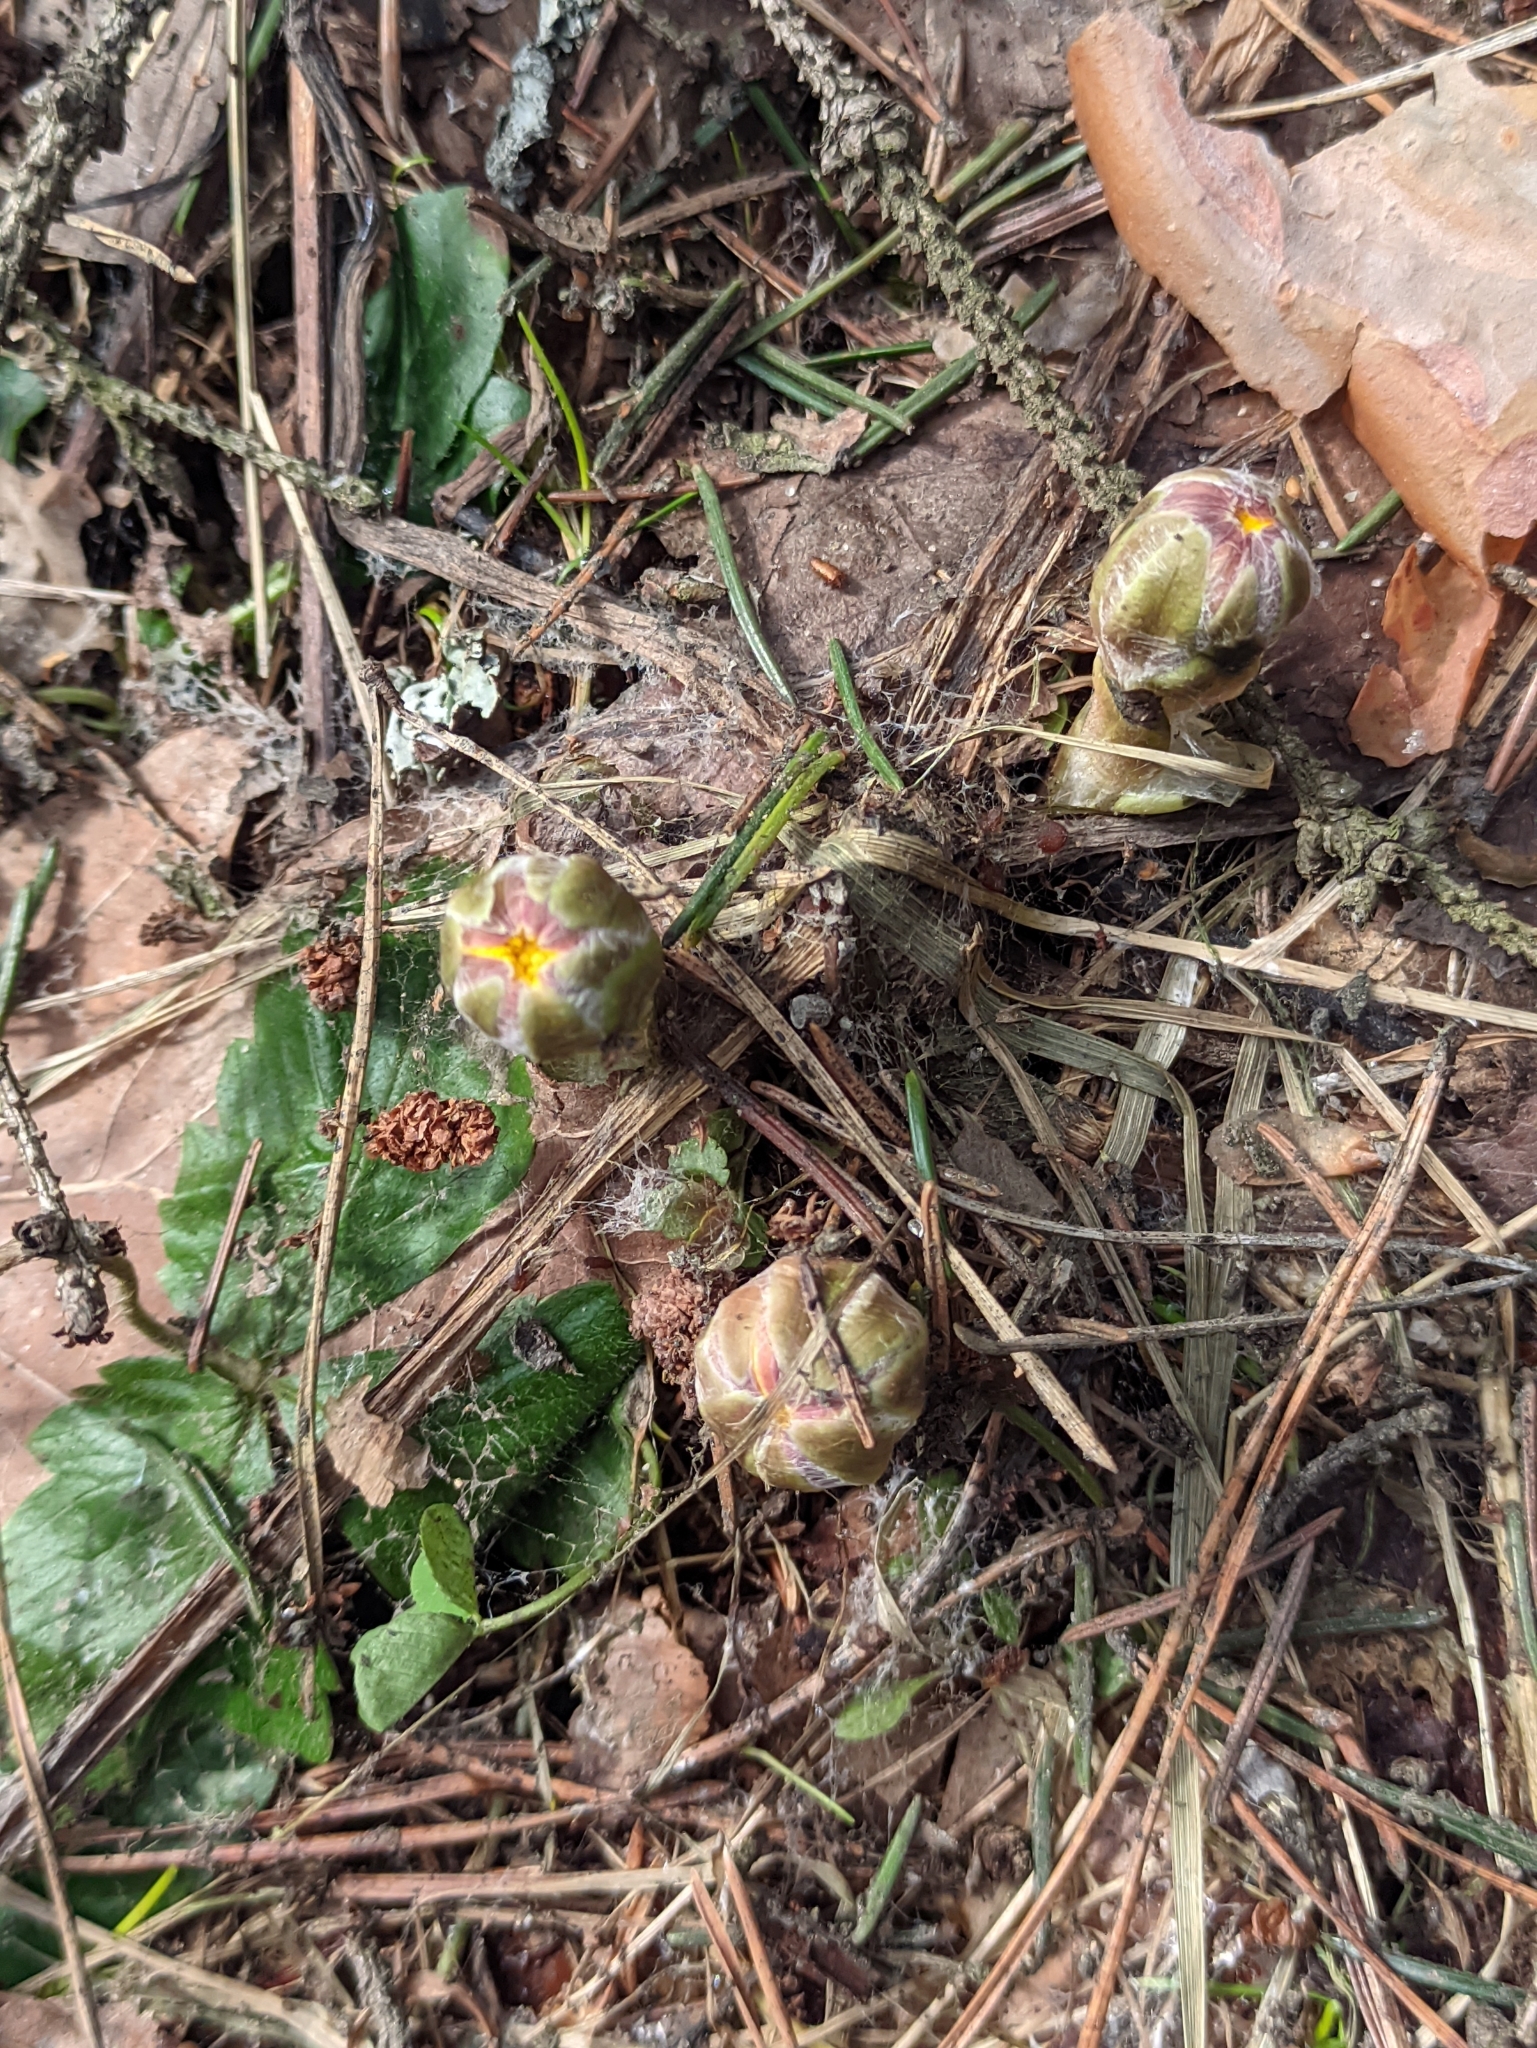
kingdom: Plantae
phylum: Tracheophyta
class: Magnoliopsida
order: Asterales
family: Asteraceae
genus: Tussilago
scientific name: Tussilago farfara
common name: Coltsfoot
